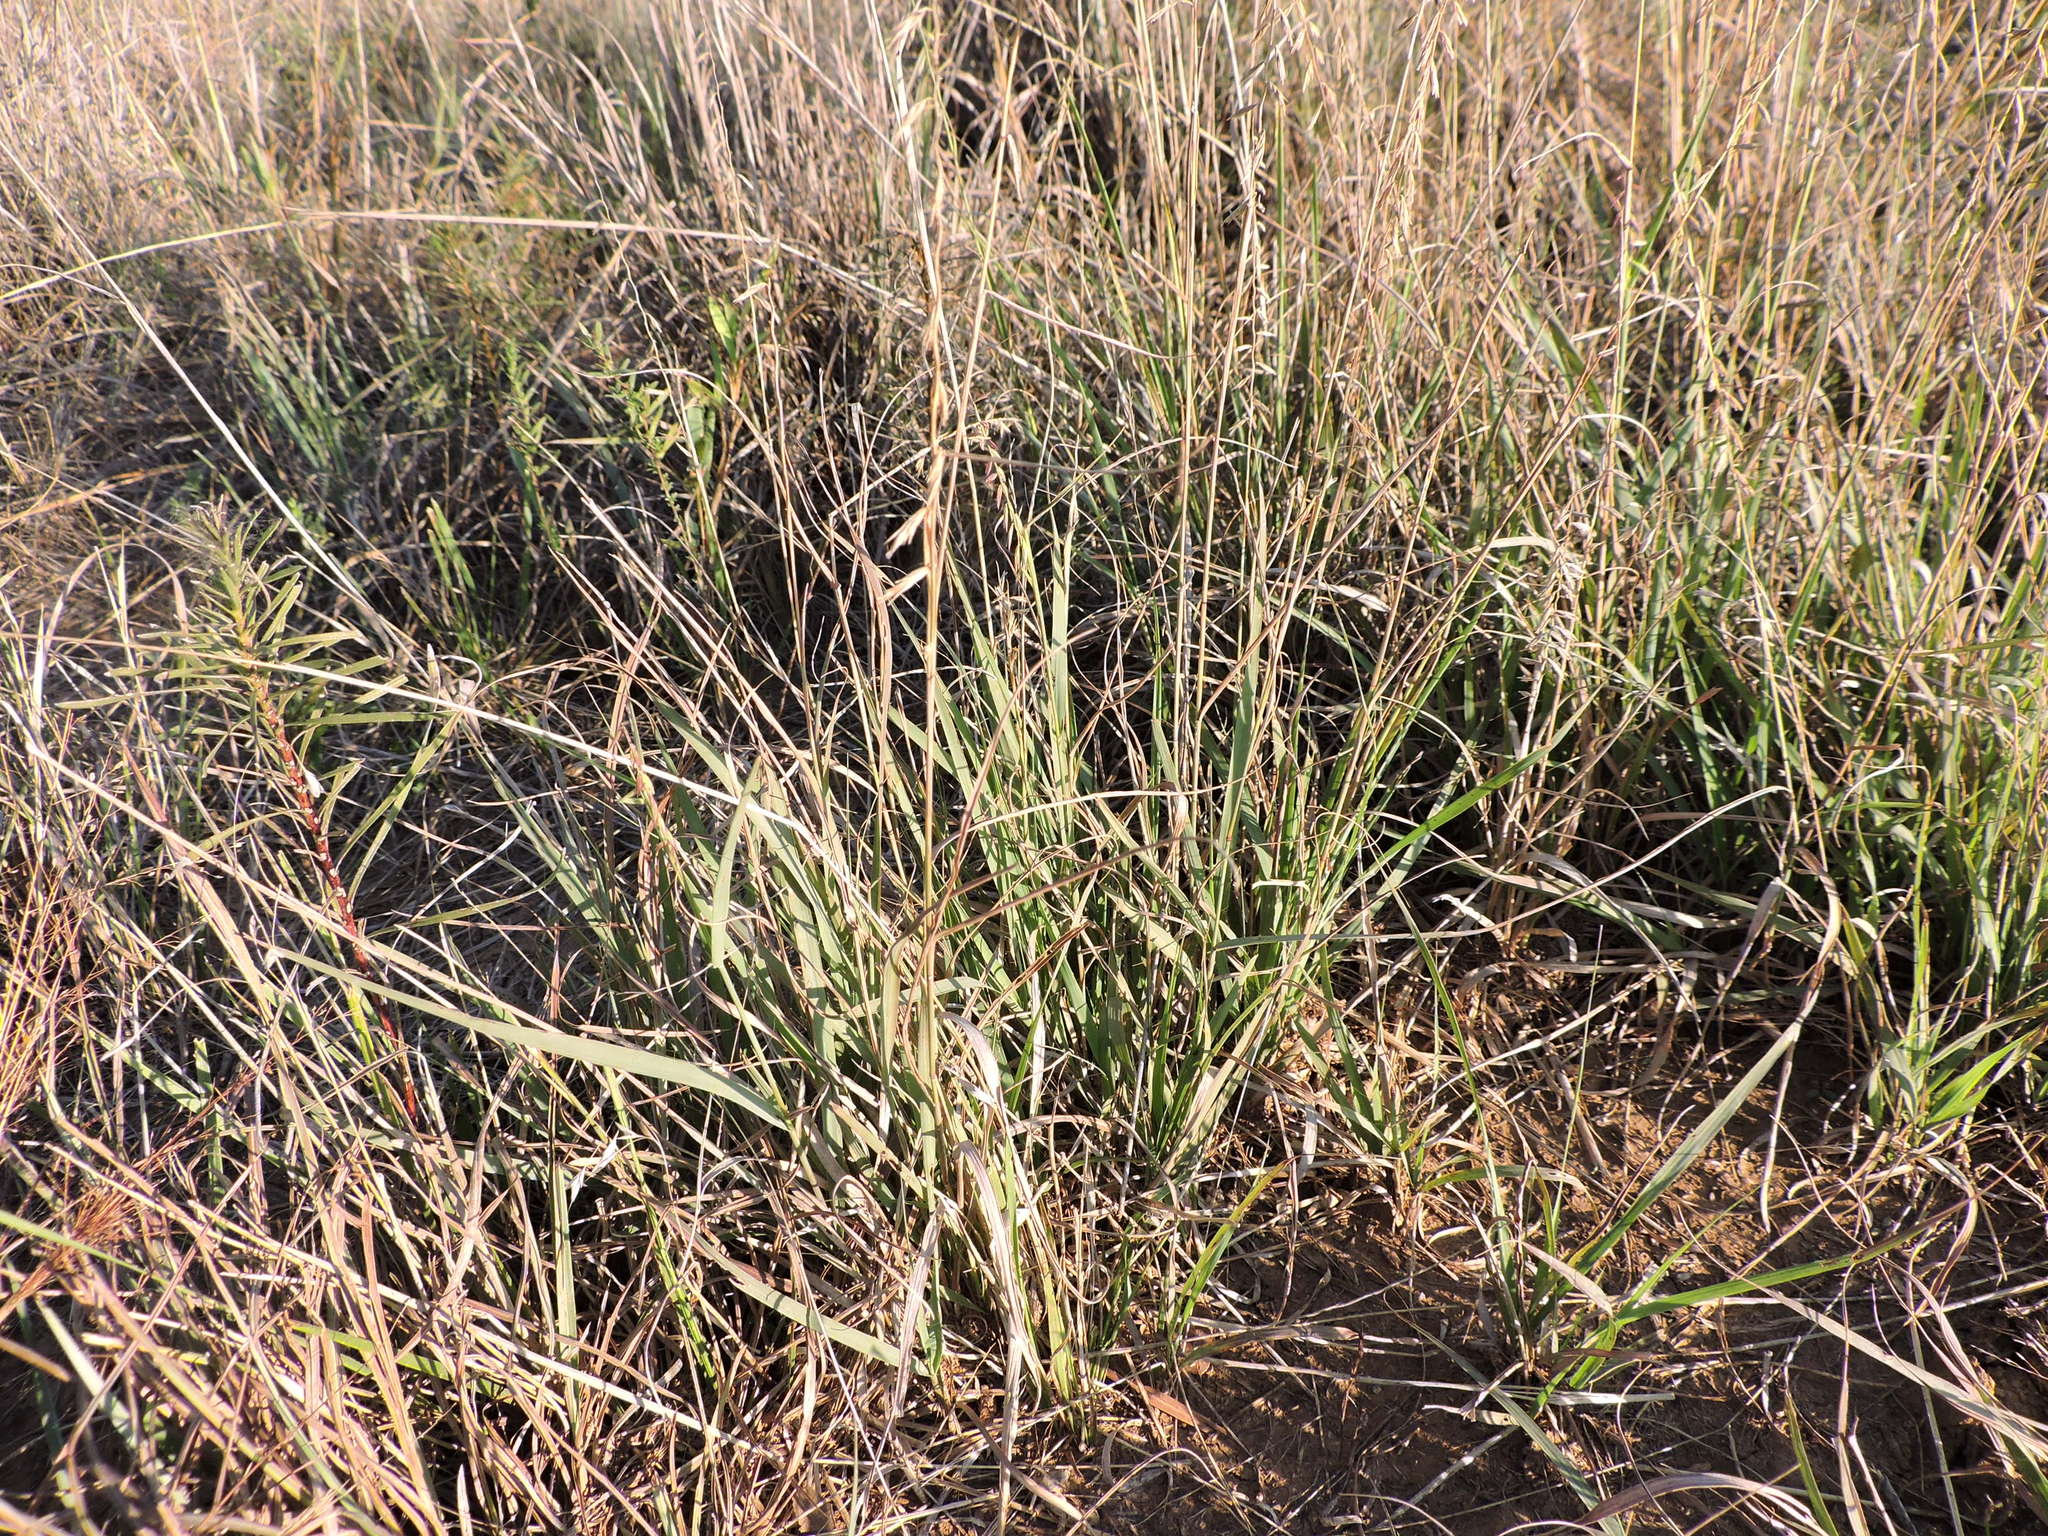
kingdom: Plantae
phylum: Tracheophyta
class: Liliopsida
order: Poales
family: Poaceae
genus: Bouteloua
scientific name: Bouteloua curtipendula
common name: Side-oats grama
